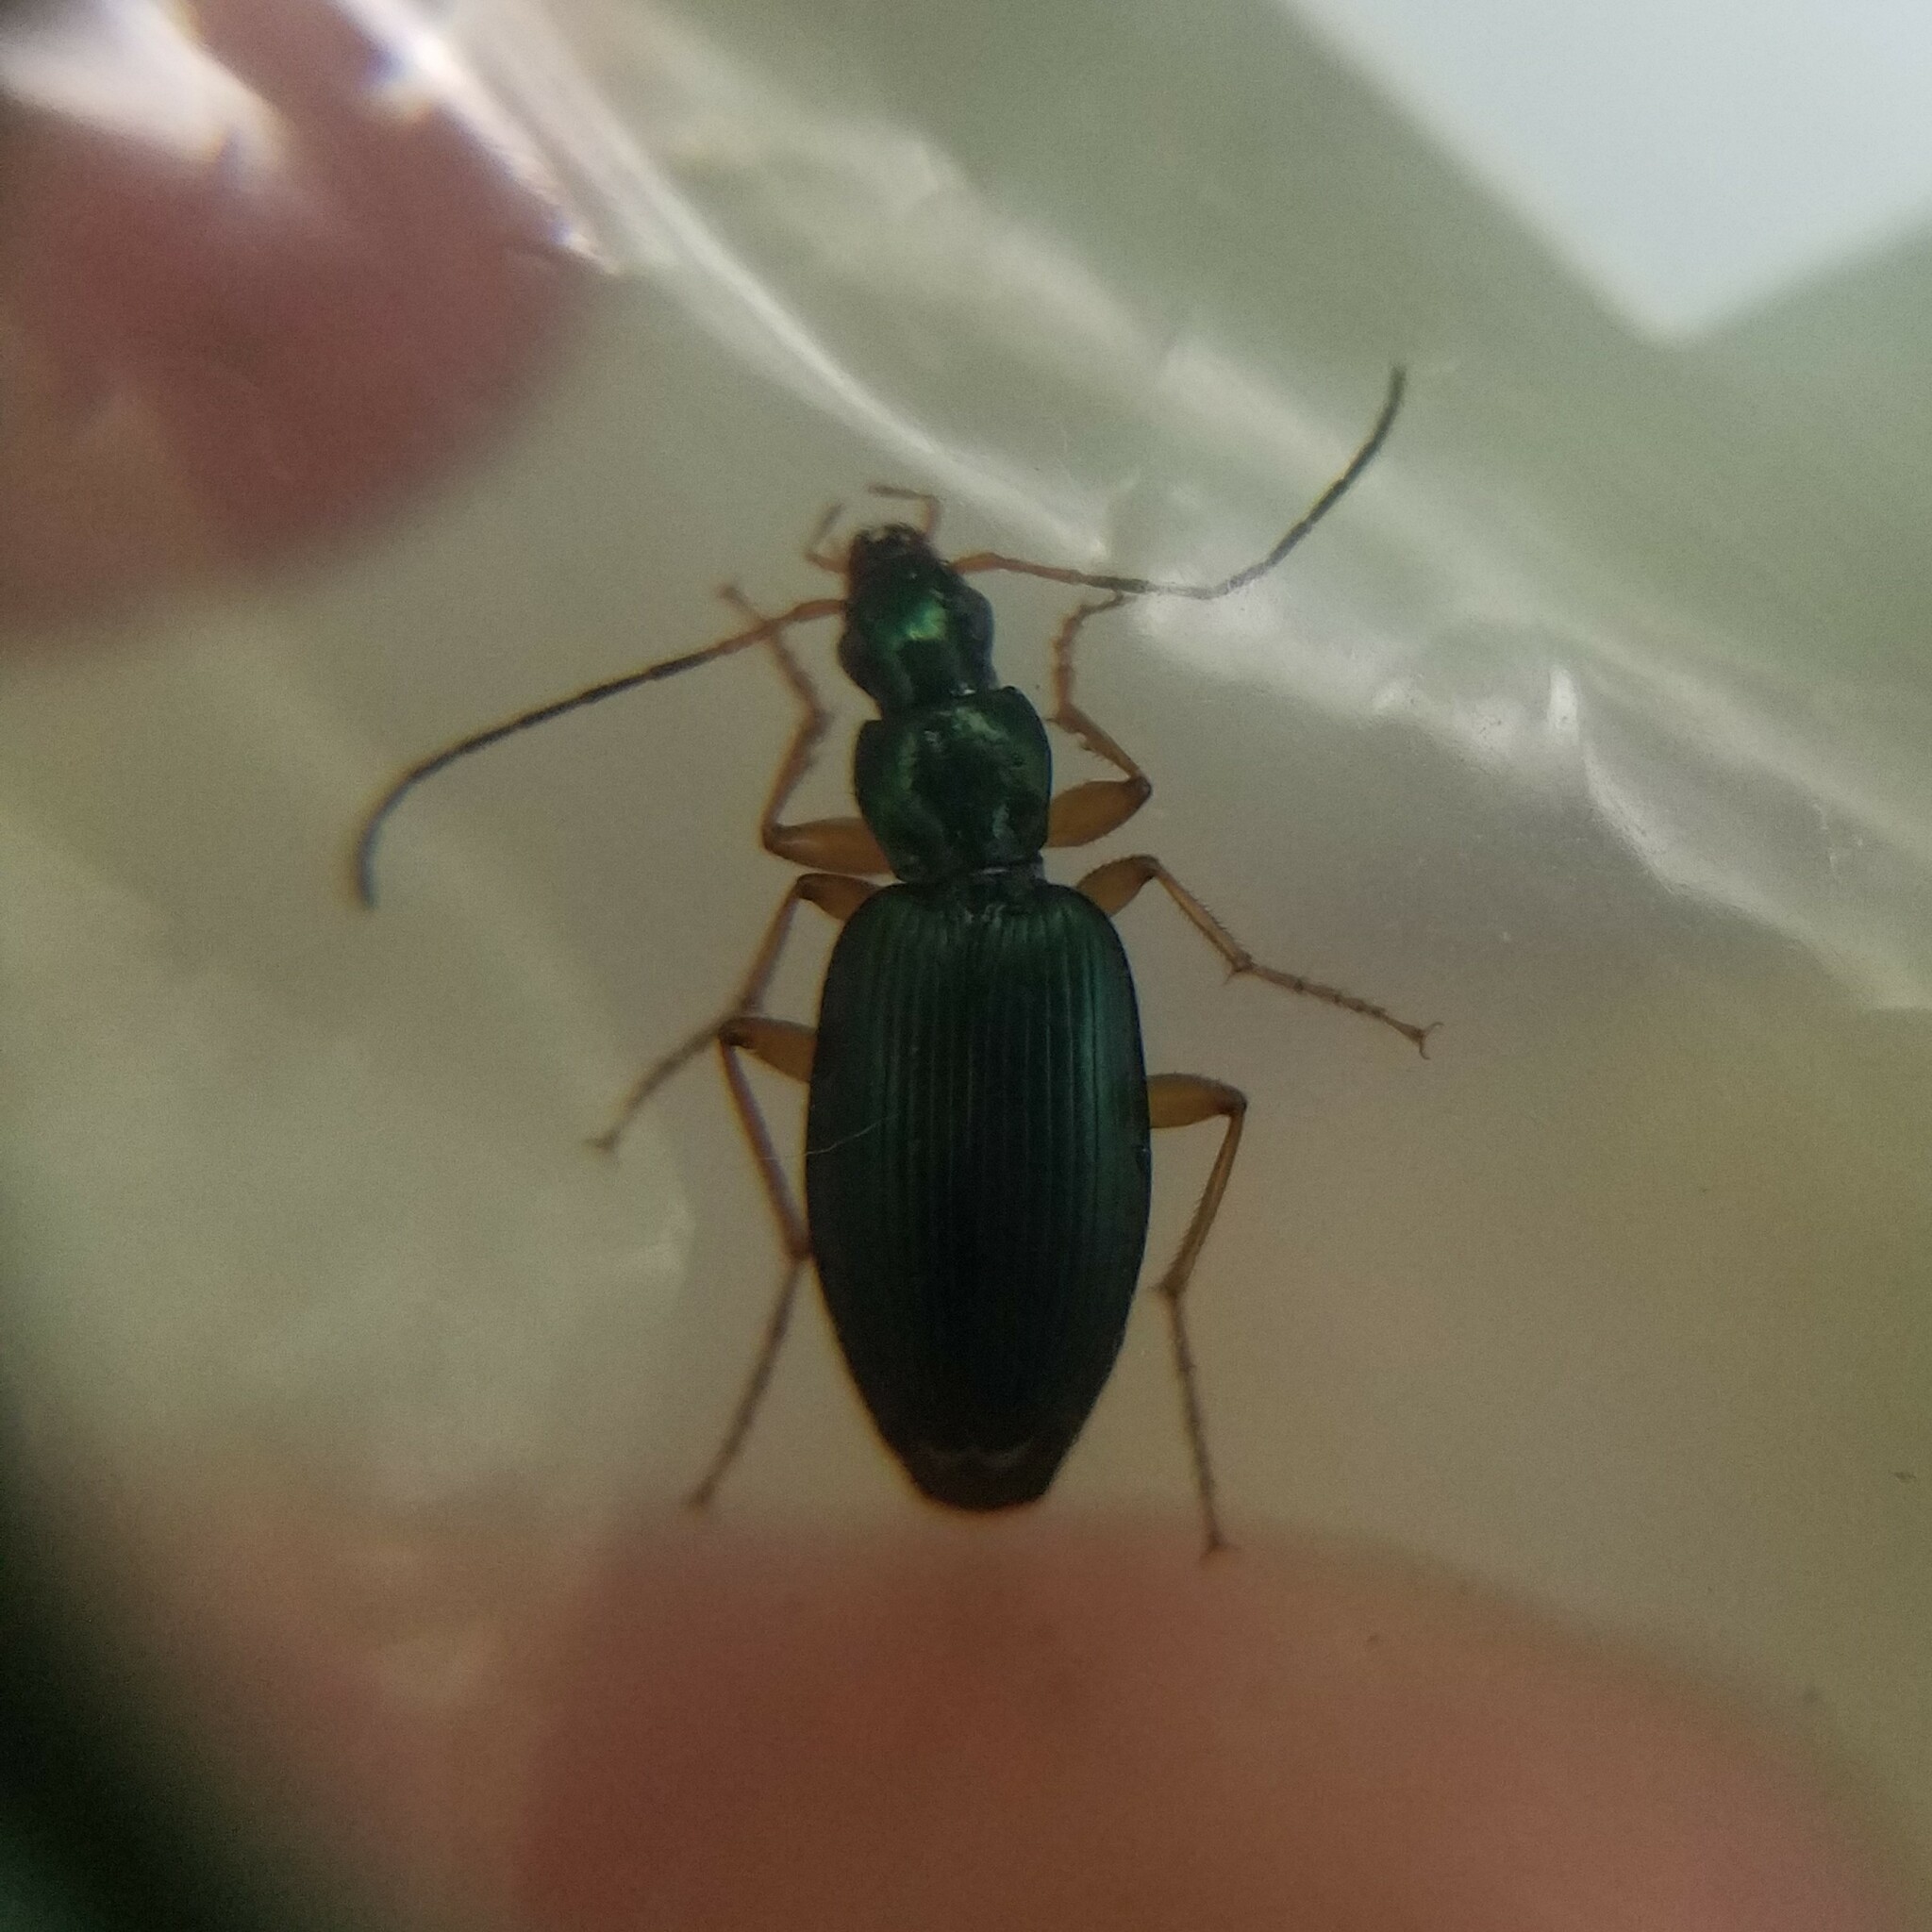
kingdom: Animalia
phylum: Arthropoda
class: Insecta
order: Coleoptera
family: Carabidae
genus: Agonum
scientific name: Agonum extensicolle
